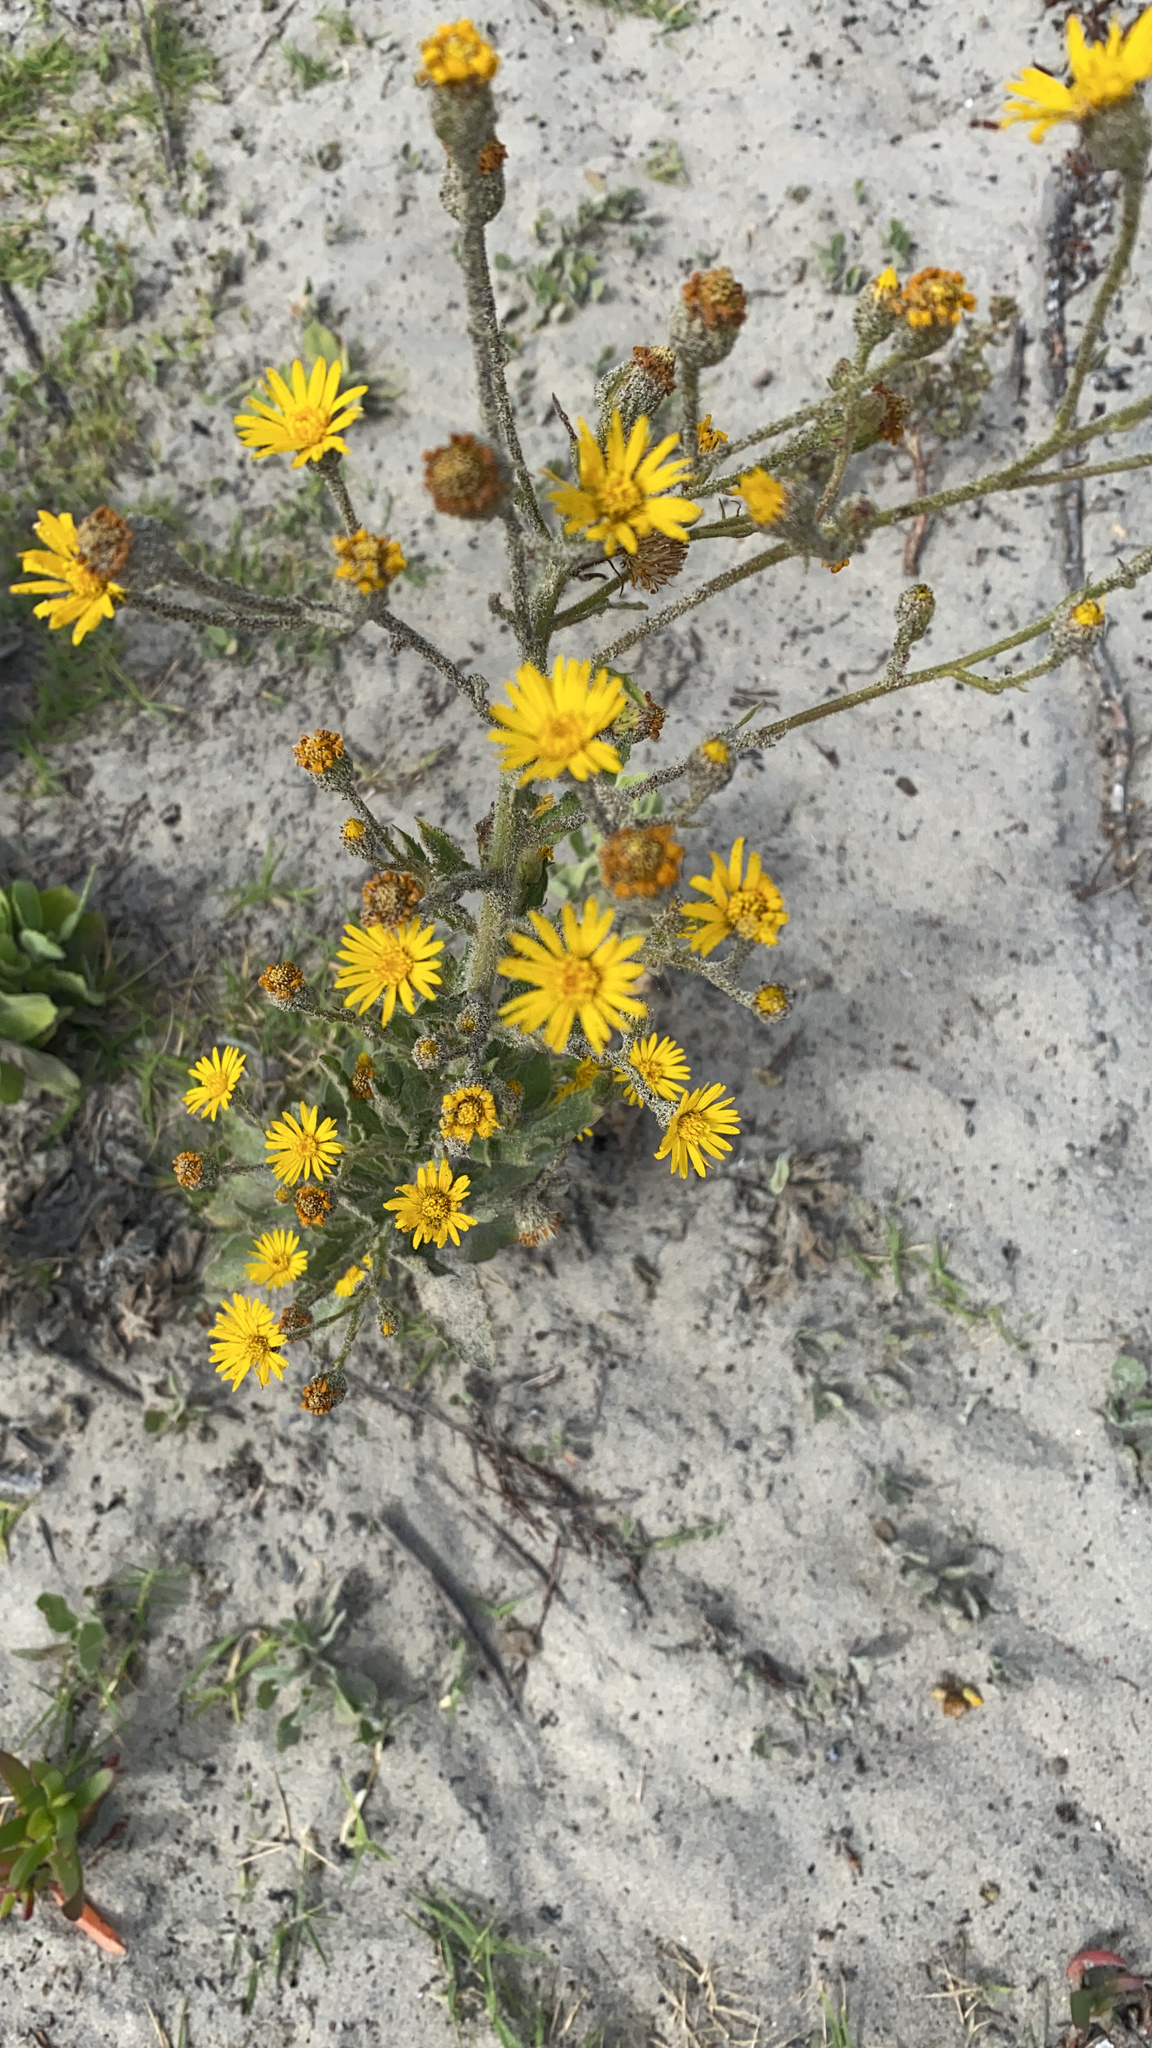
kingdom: Plantae
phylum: Tracheophyta
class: Magnoliopsida
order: Asterales
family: Asteraceae
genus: Heterotheca
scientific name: Heterotheca grandiflora
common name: Telegraphweed
